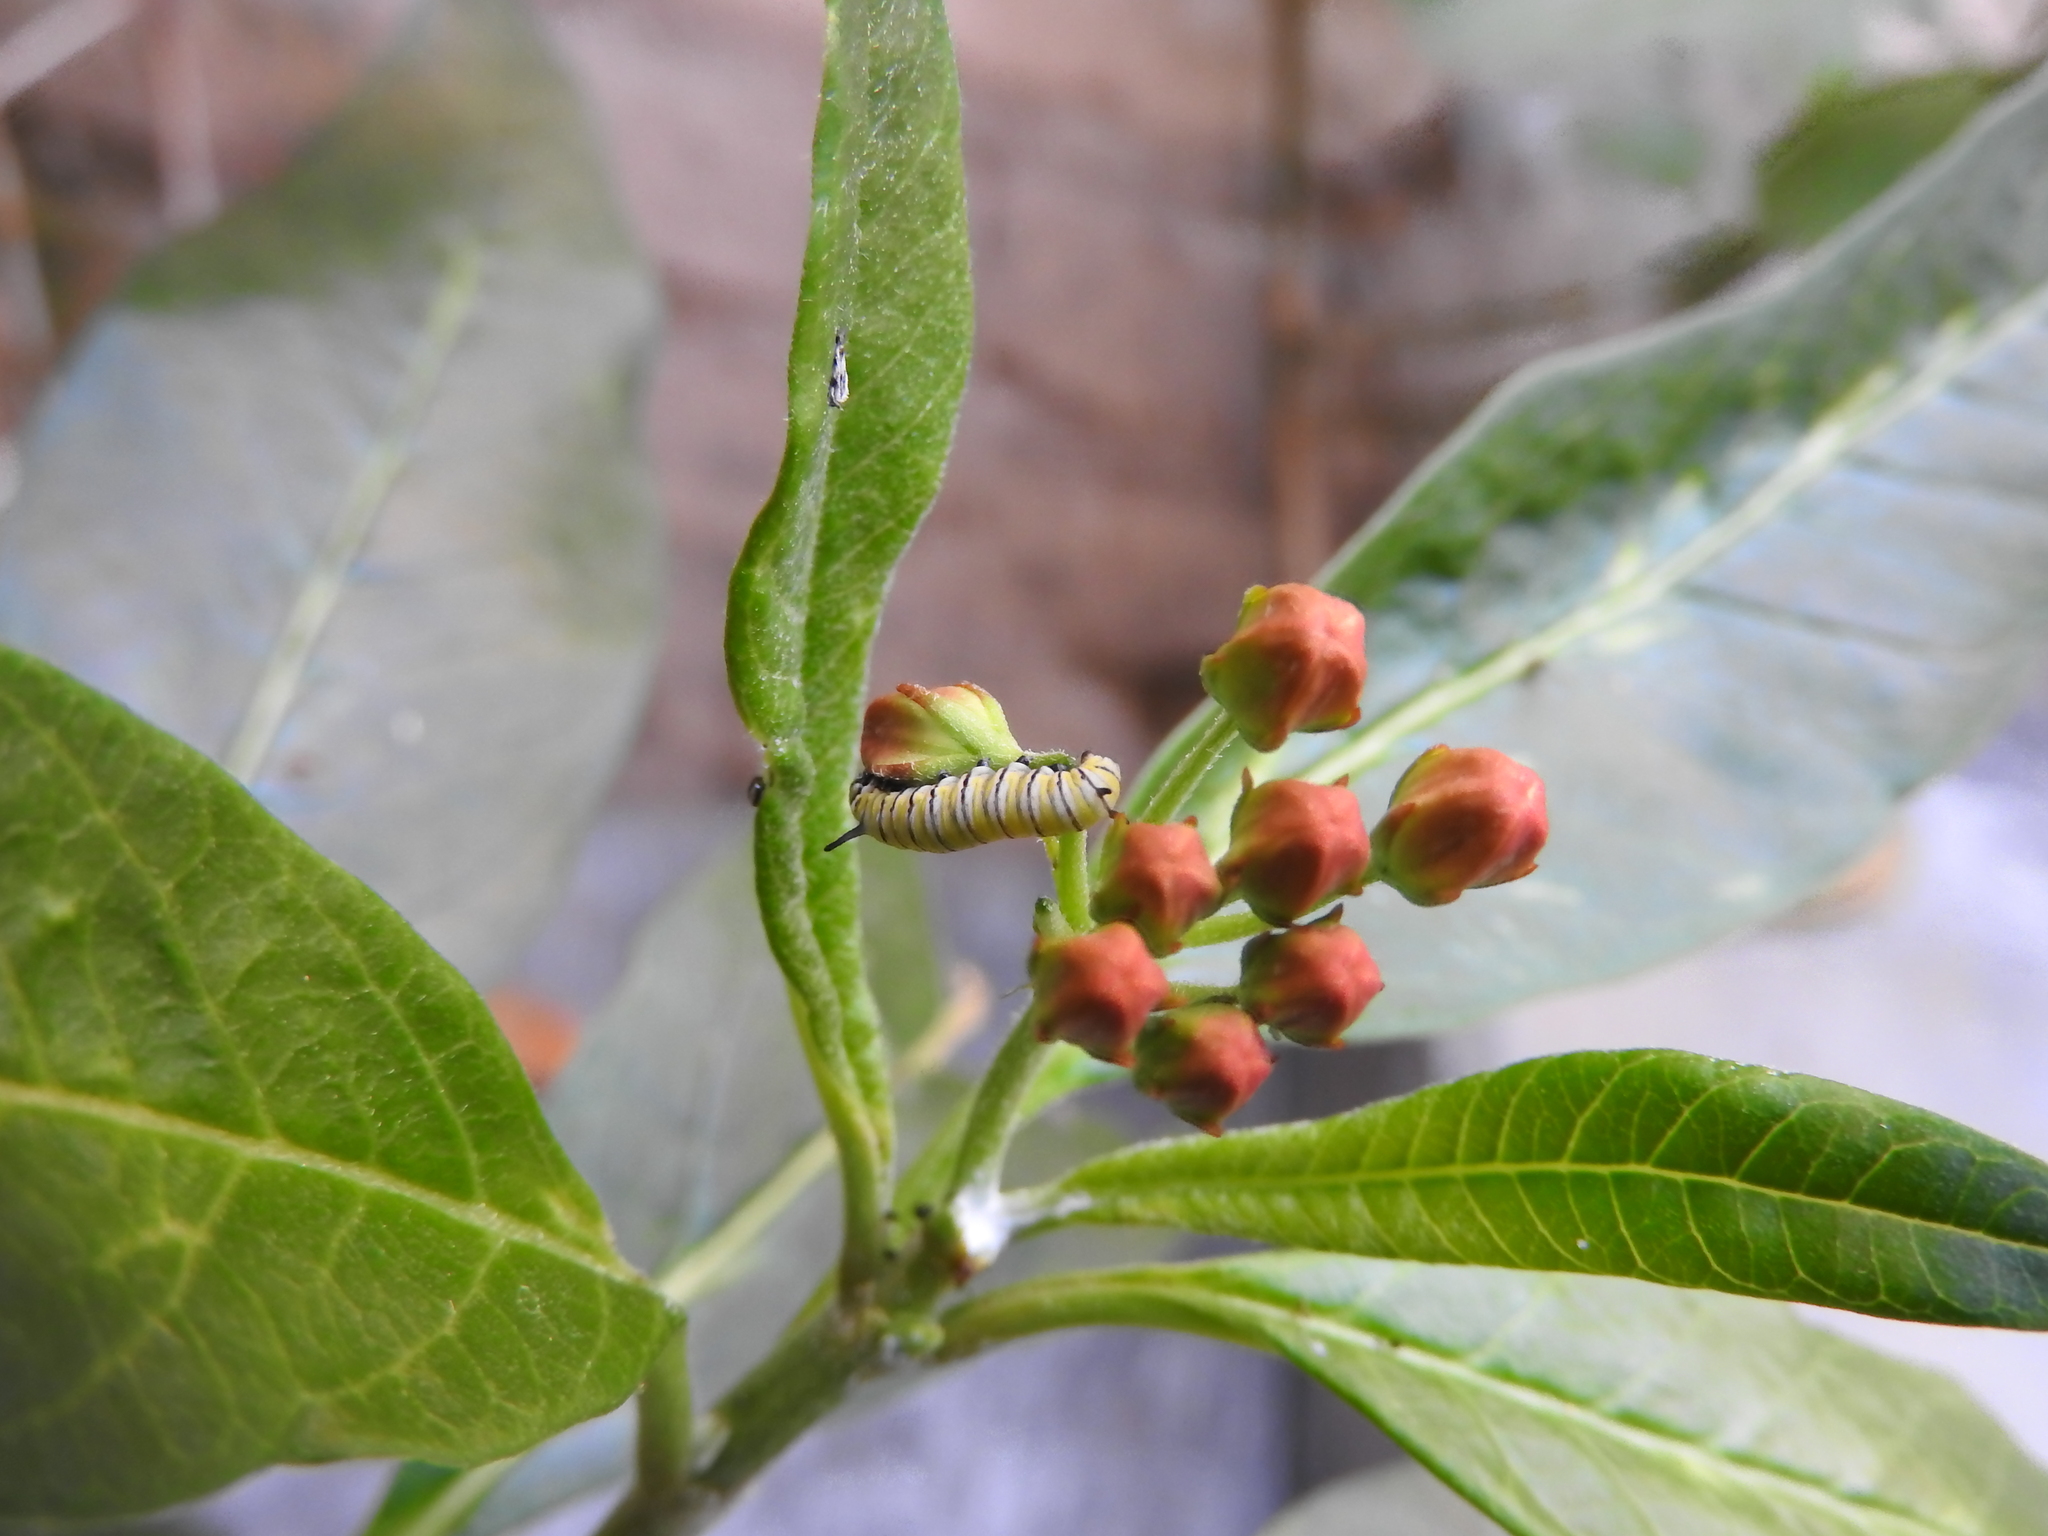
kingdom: Animalia
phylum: Arthropoda
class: Insecta
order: Lepidoptera
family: Nymphalidae
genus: Danaus
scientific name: Danaus plexippus
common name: Monarch
